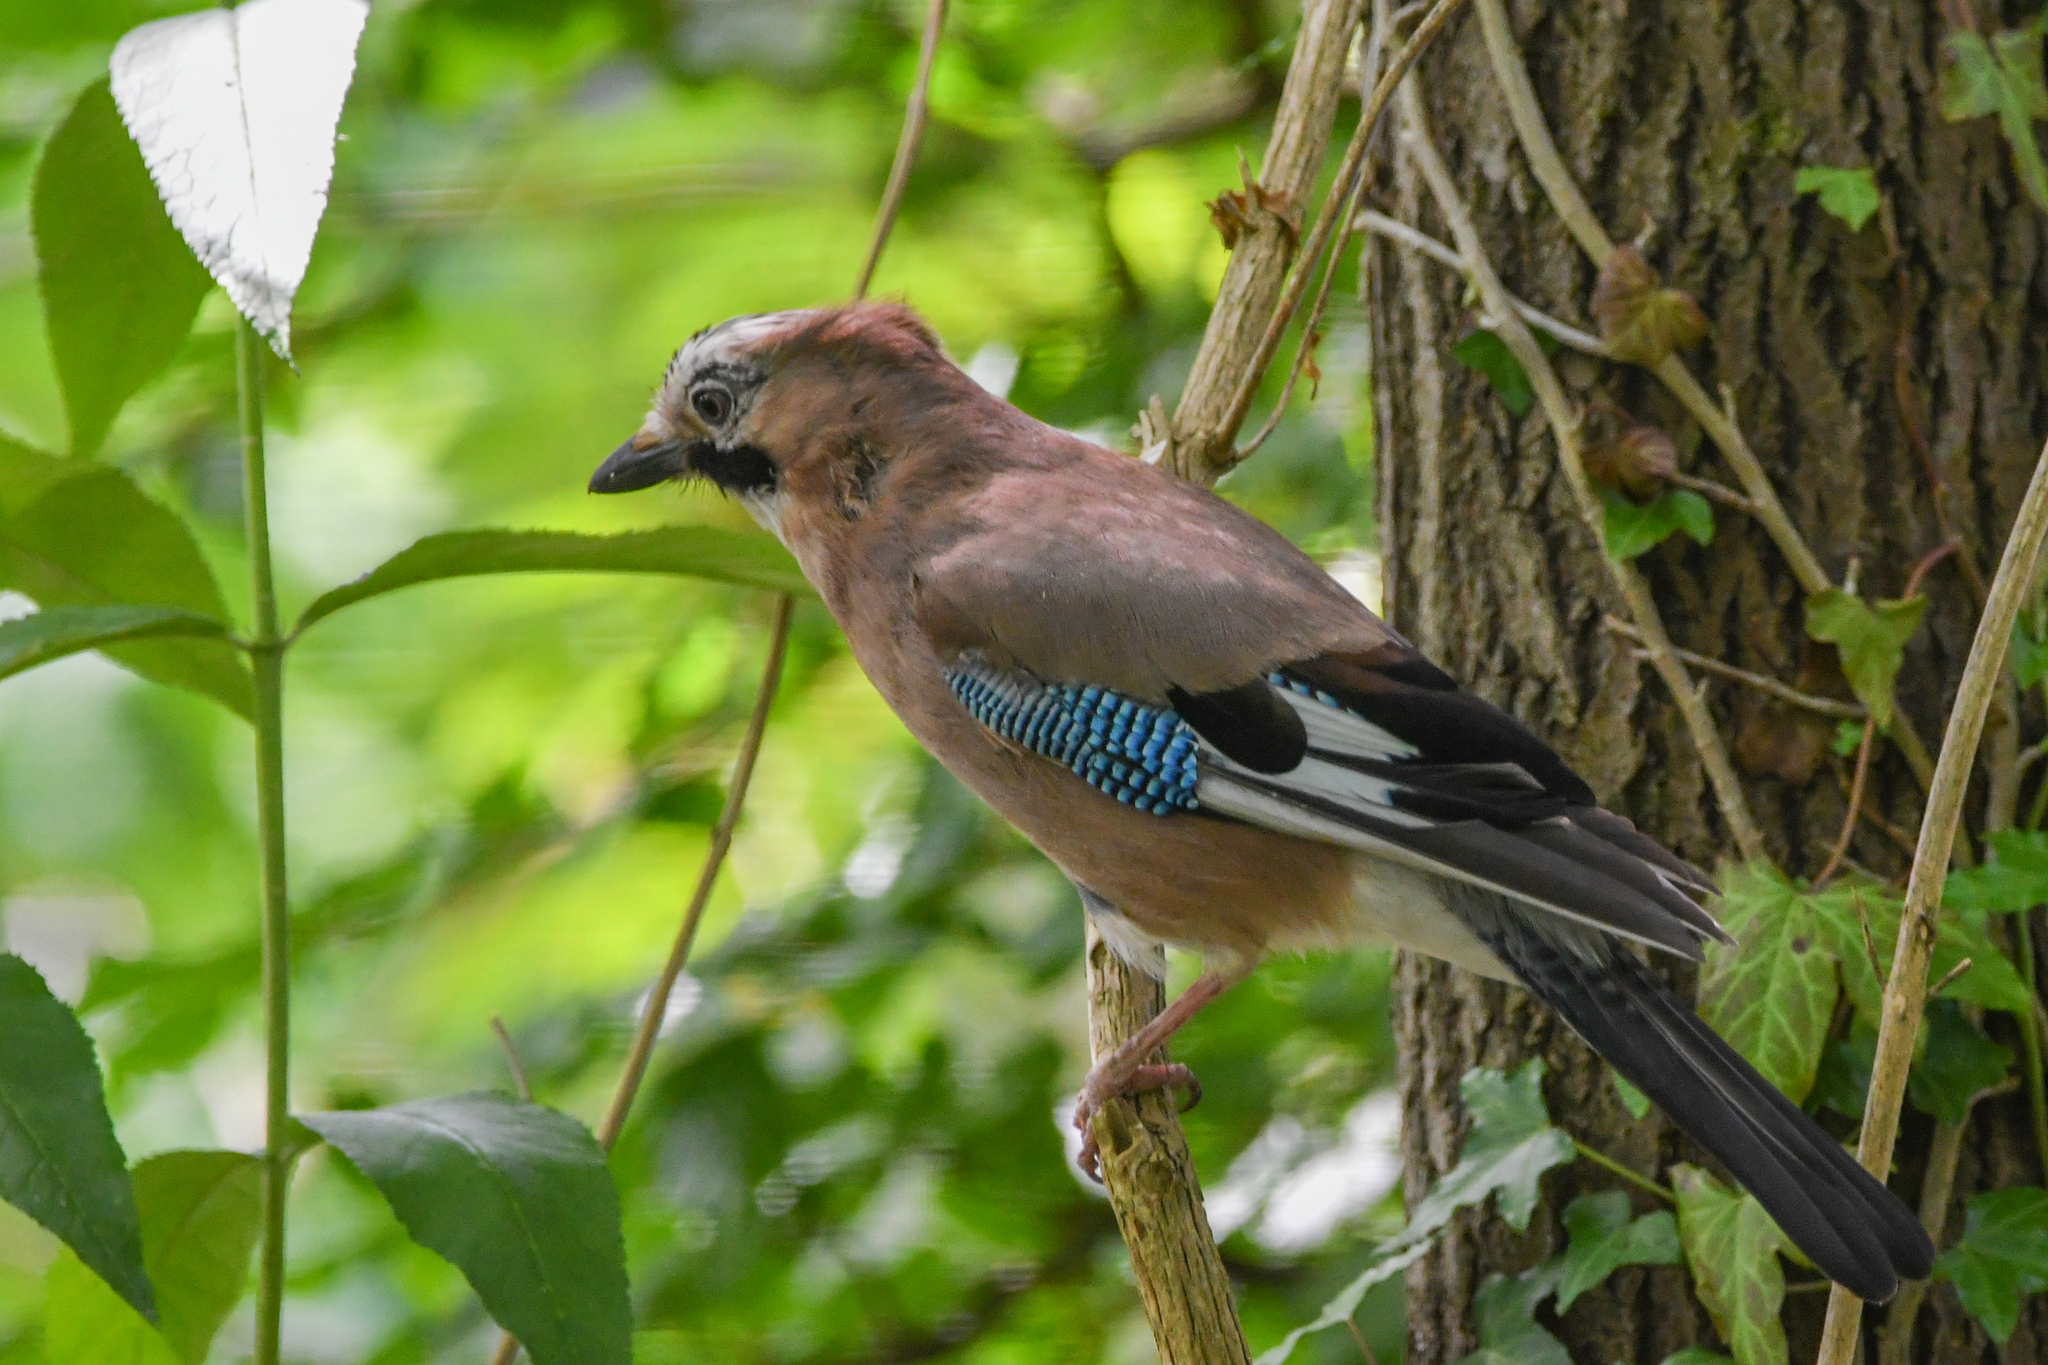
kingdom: Animalia
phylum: Chordata
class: Aves
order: Passeriformes
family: Corvidae
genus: Garrulus
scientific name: Garrulus glandarius
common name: Eurasian jay
